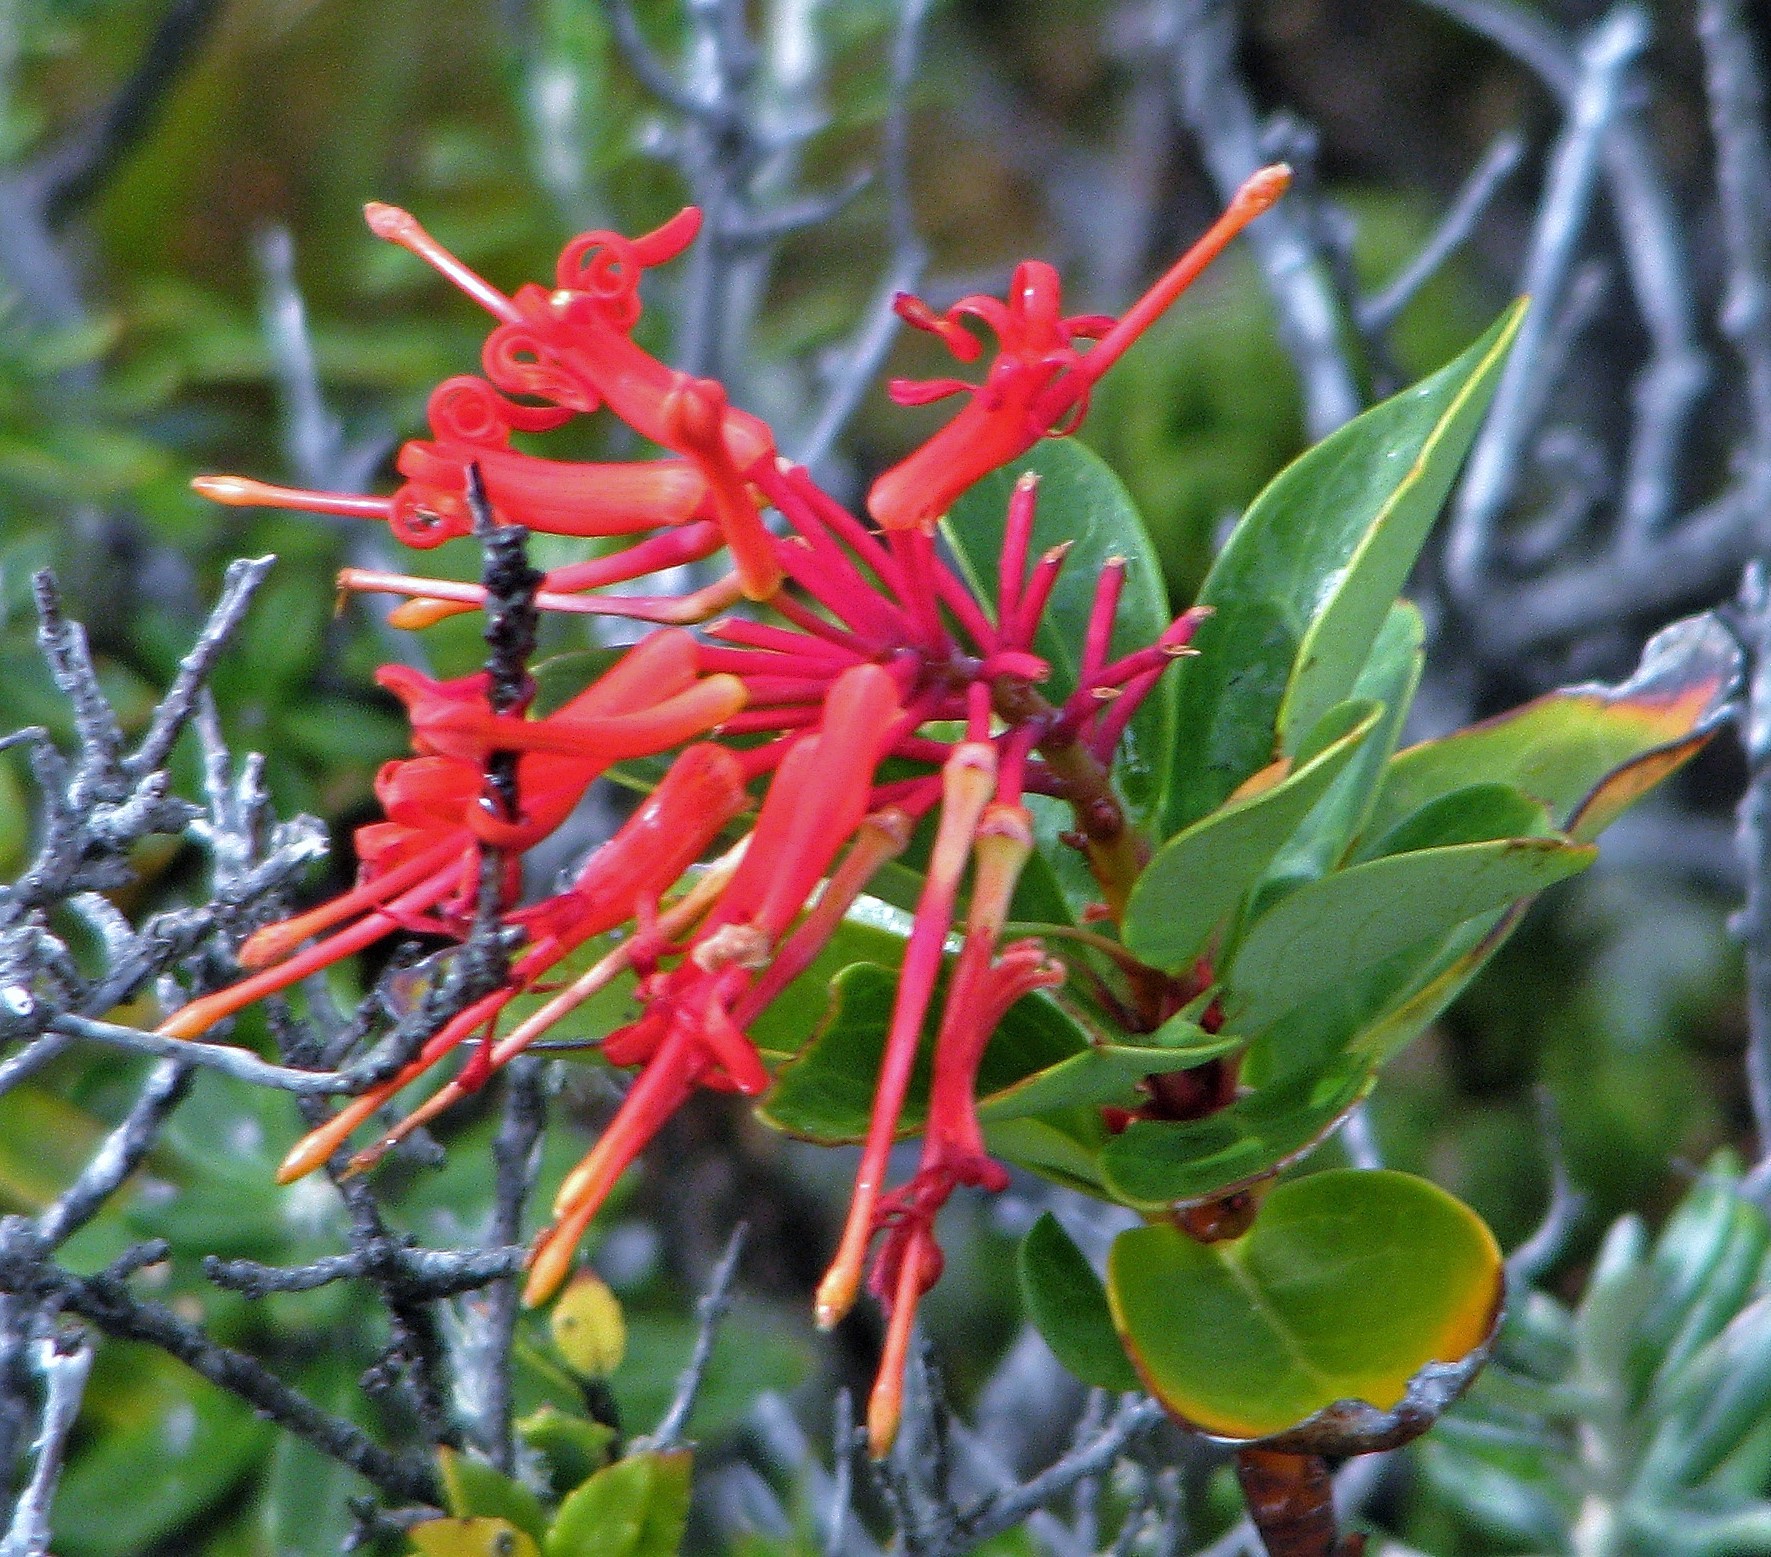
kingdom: Plantae
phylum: Tracheophyta
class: Magnoliopsida
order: Proteales
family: Proteaceae
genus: Embothrium
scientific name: Embothrium coccineum
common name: Chilean firebush
